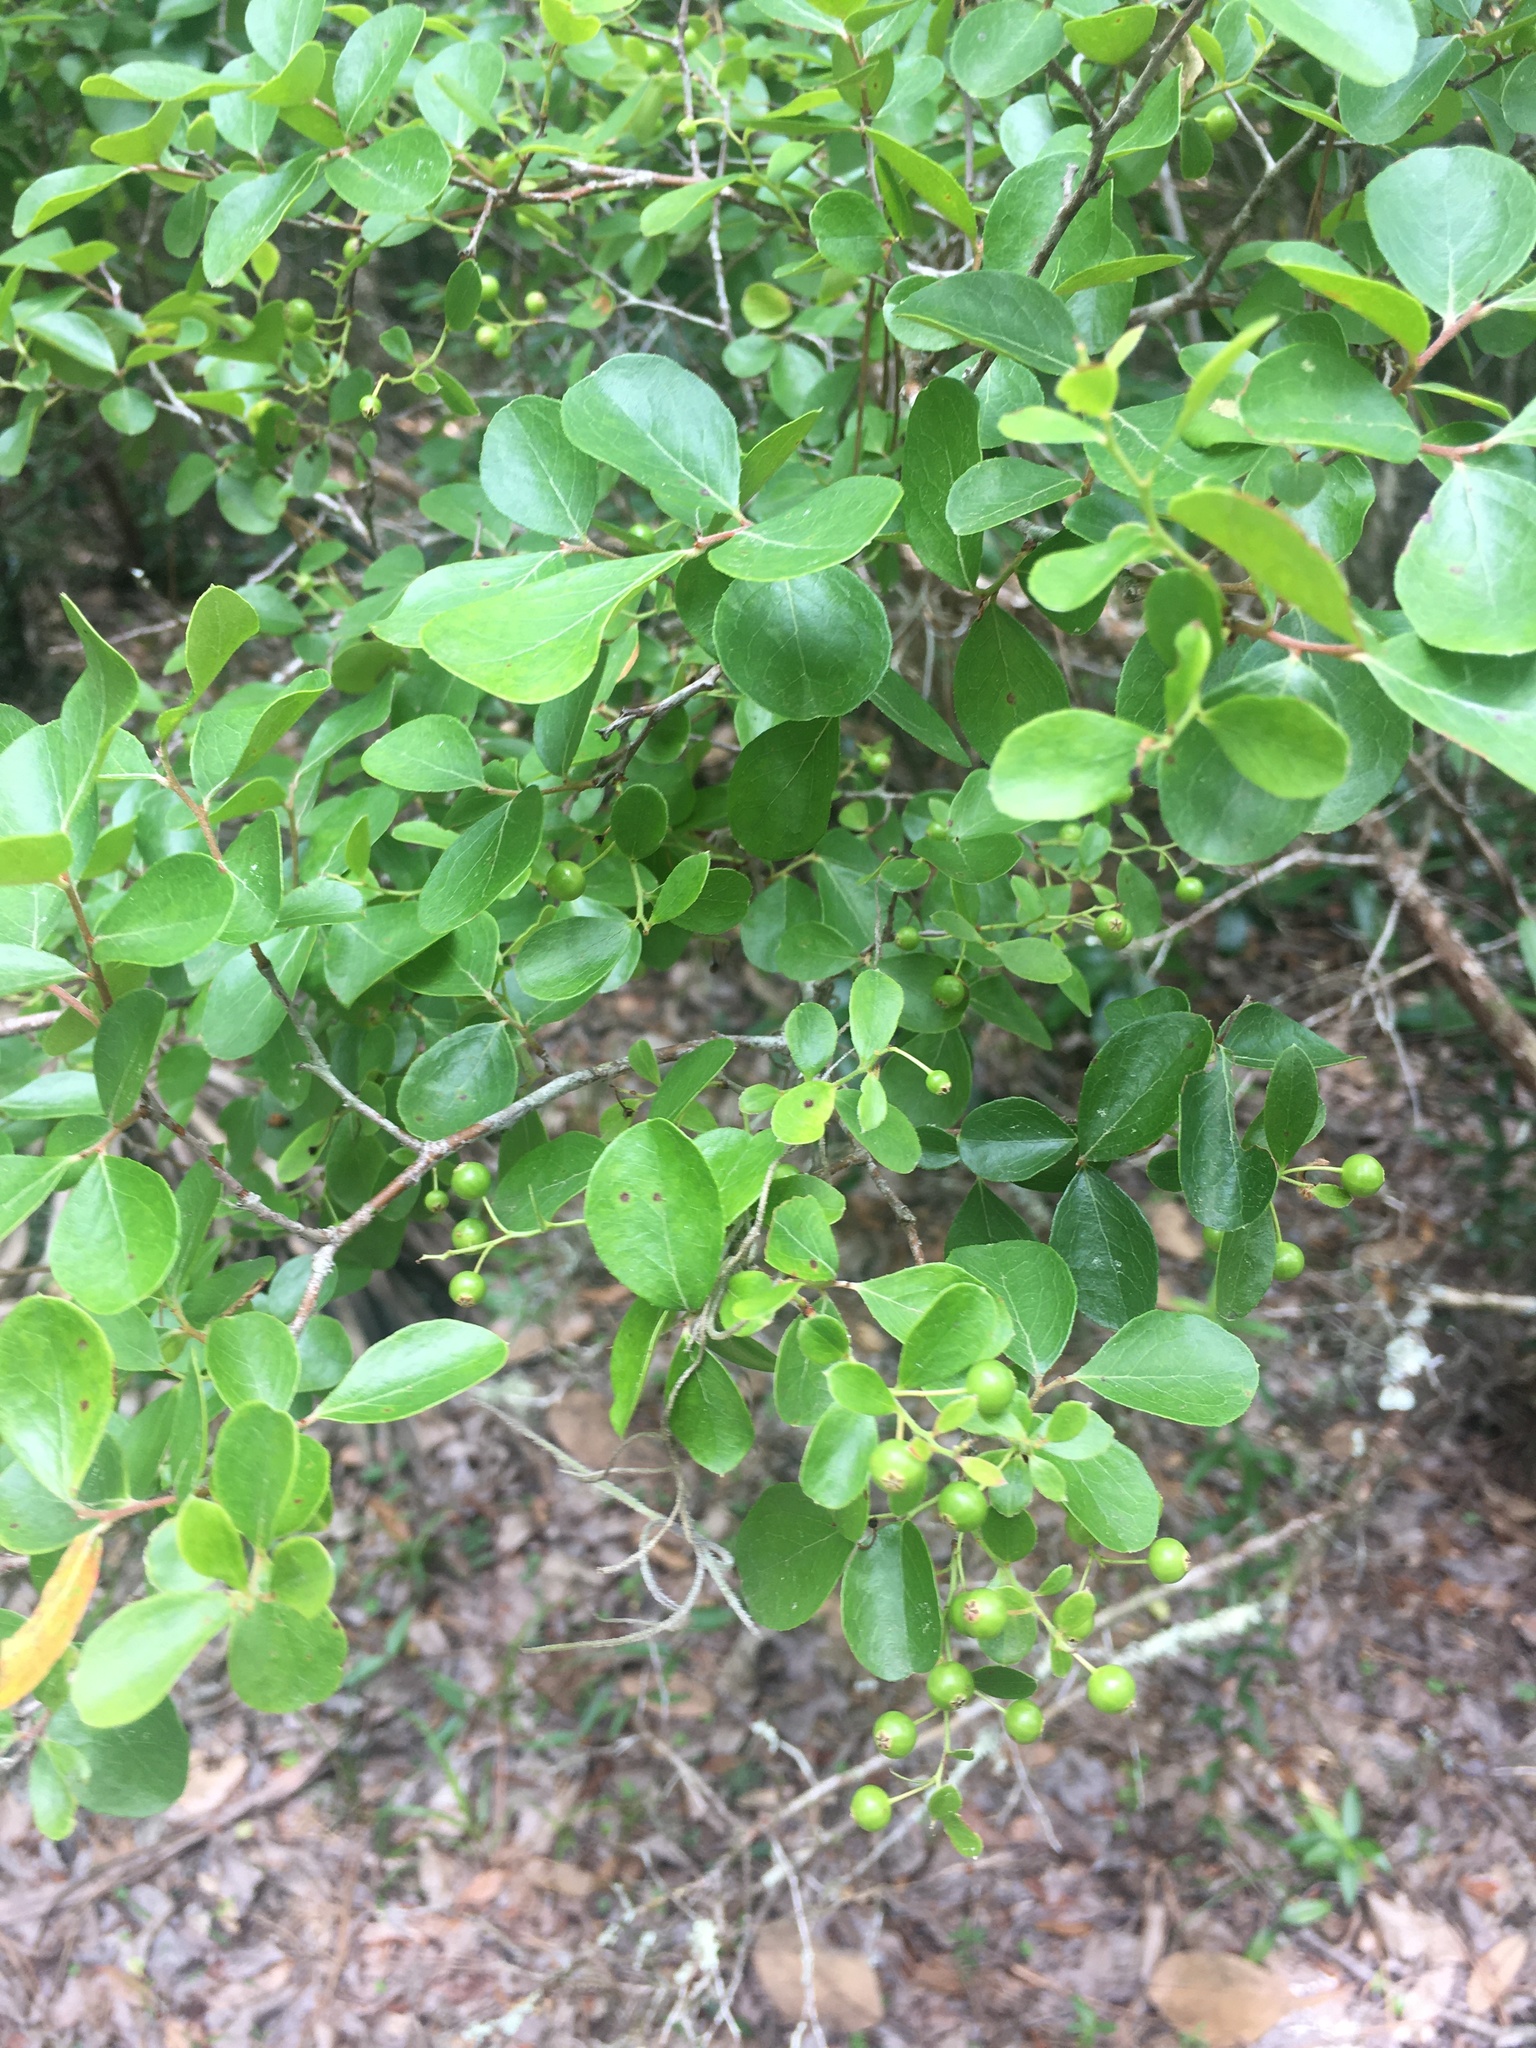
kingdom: Plantae
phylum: Tracheophyta
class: Magnoliopsida
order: Ericales
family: Ericaceae
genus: Vaccinium
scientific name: Vaccinium arboreum
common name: Farkleberry
